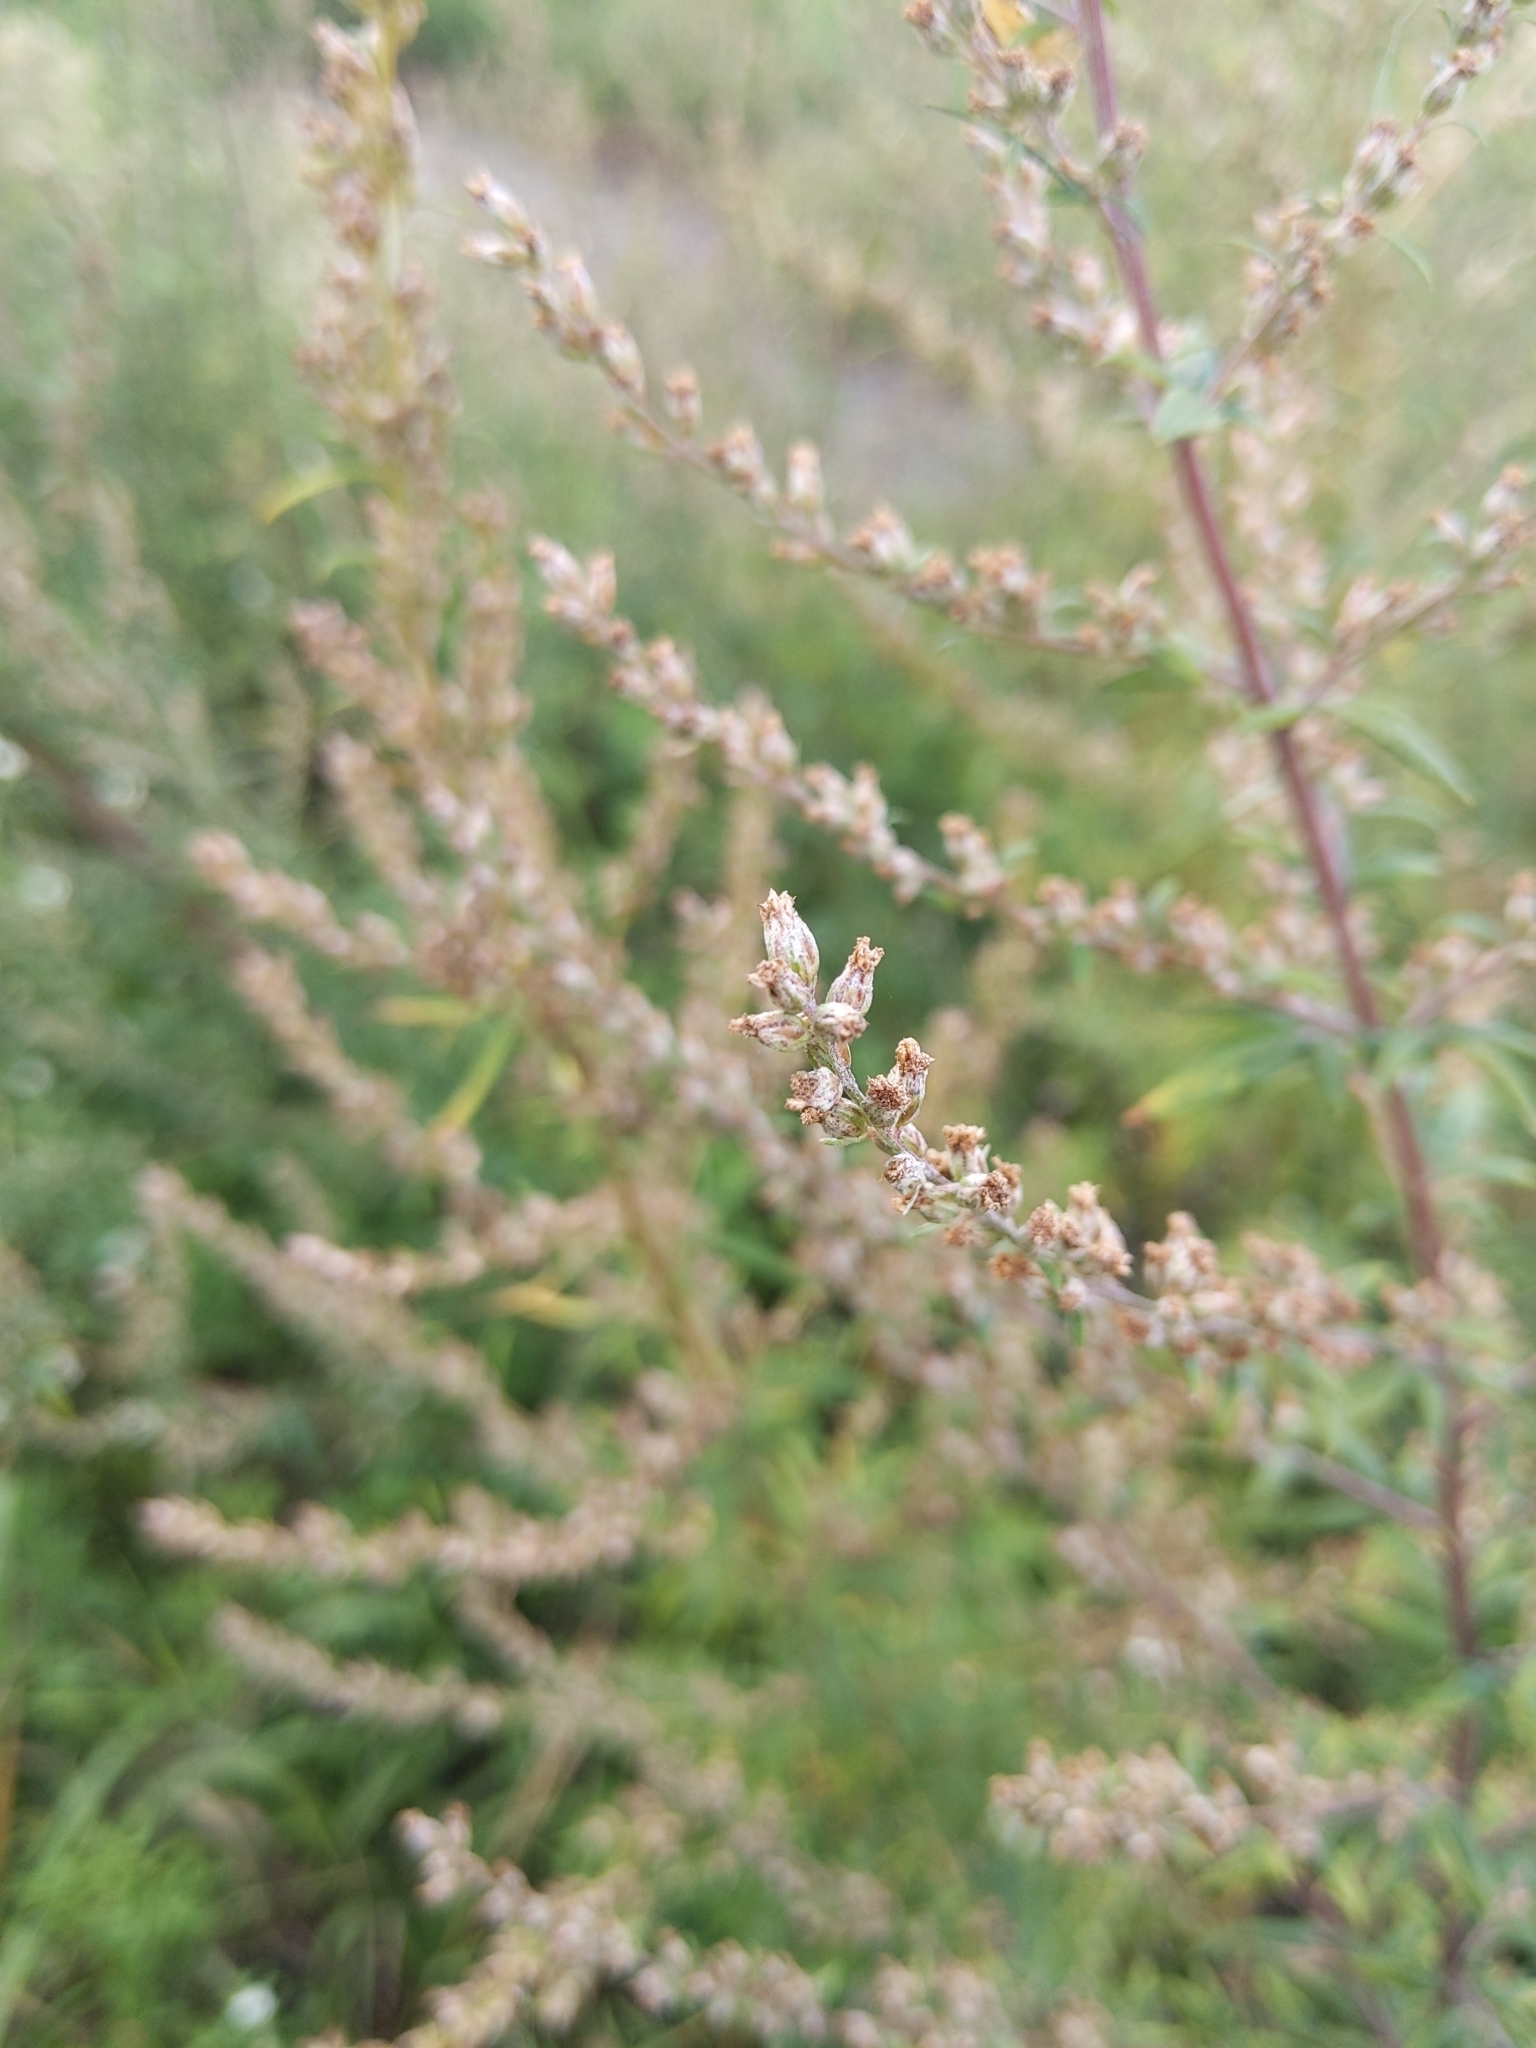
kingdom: Plantae
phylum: Tracheophyta
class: Magnoliopsida
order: Asterales
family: Asteraceae
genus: Artemisia
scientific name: Artemisia vulgaris
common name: Mugwort
